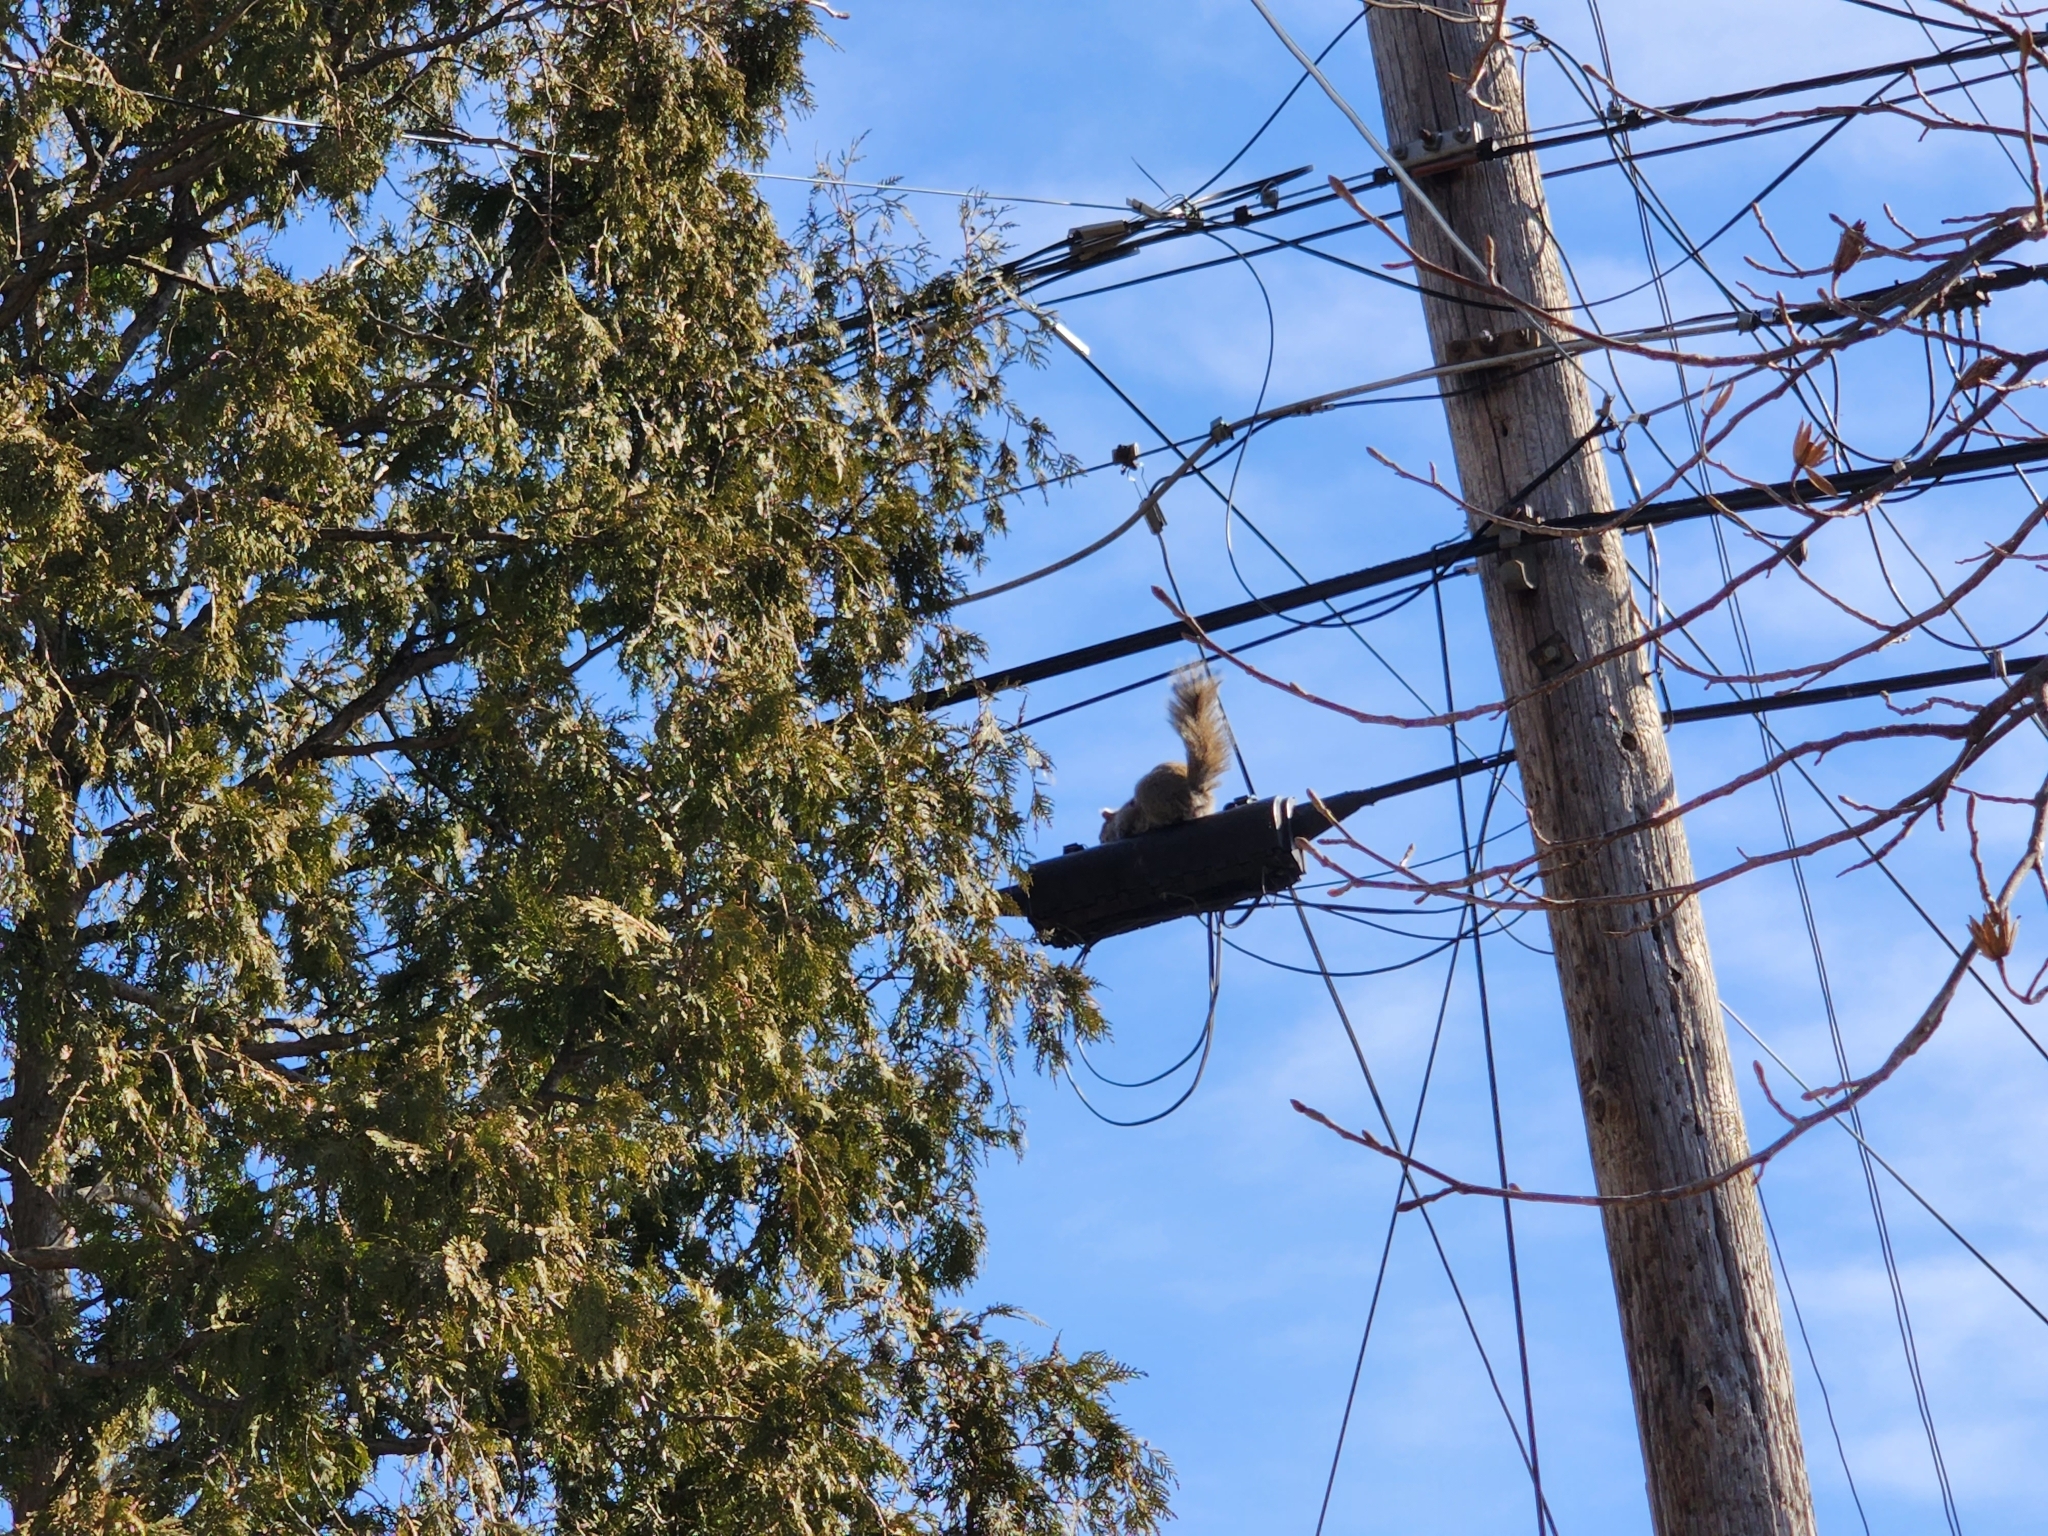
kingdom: Animalia
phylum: Chordata
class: Mammalia
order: Rodentia
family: Sciuridae
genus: Sciurus
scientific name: Sciurus carolinensis
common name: Eastern gray squirrel
